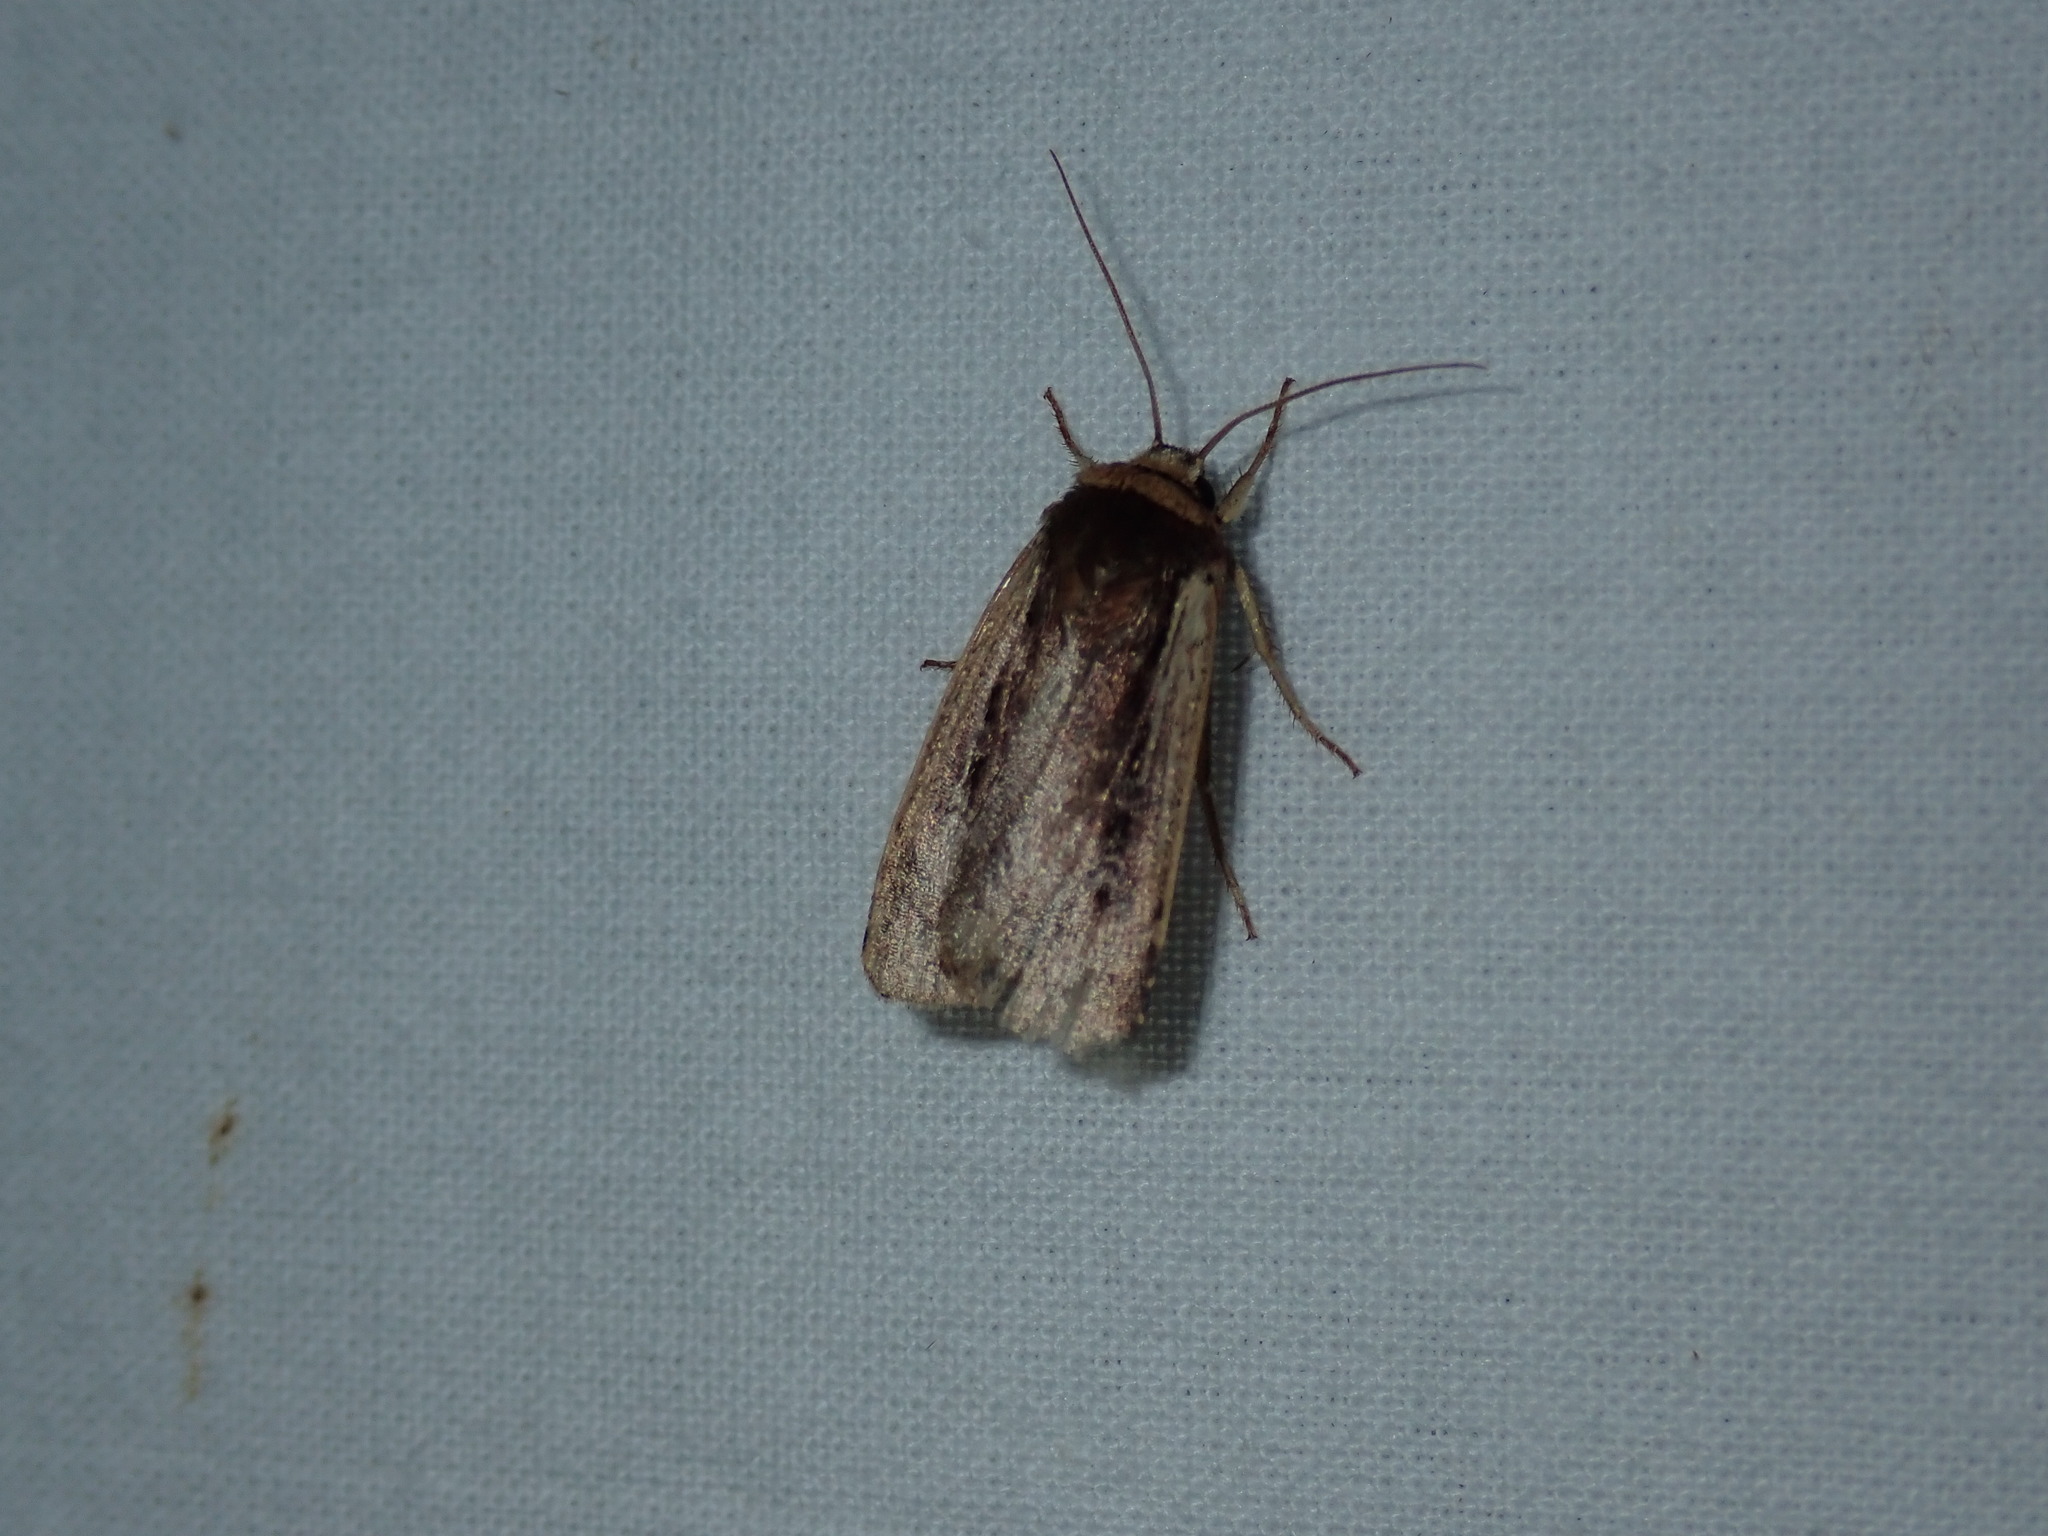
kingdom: Animalia
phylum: Arthropoda
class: Insecta
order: Lepidoptera
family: Noctuidae
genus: Ochropleura
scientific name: Ochropleura implecta
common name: Flame-shouldered dart
